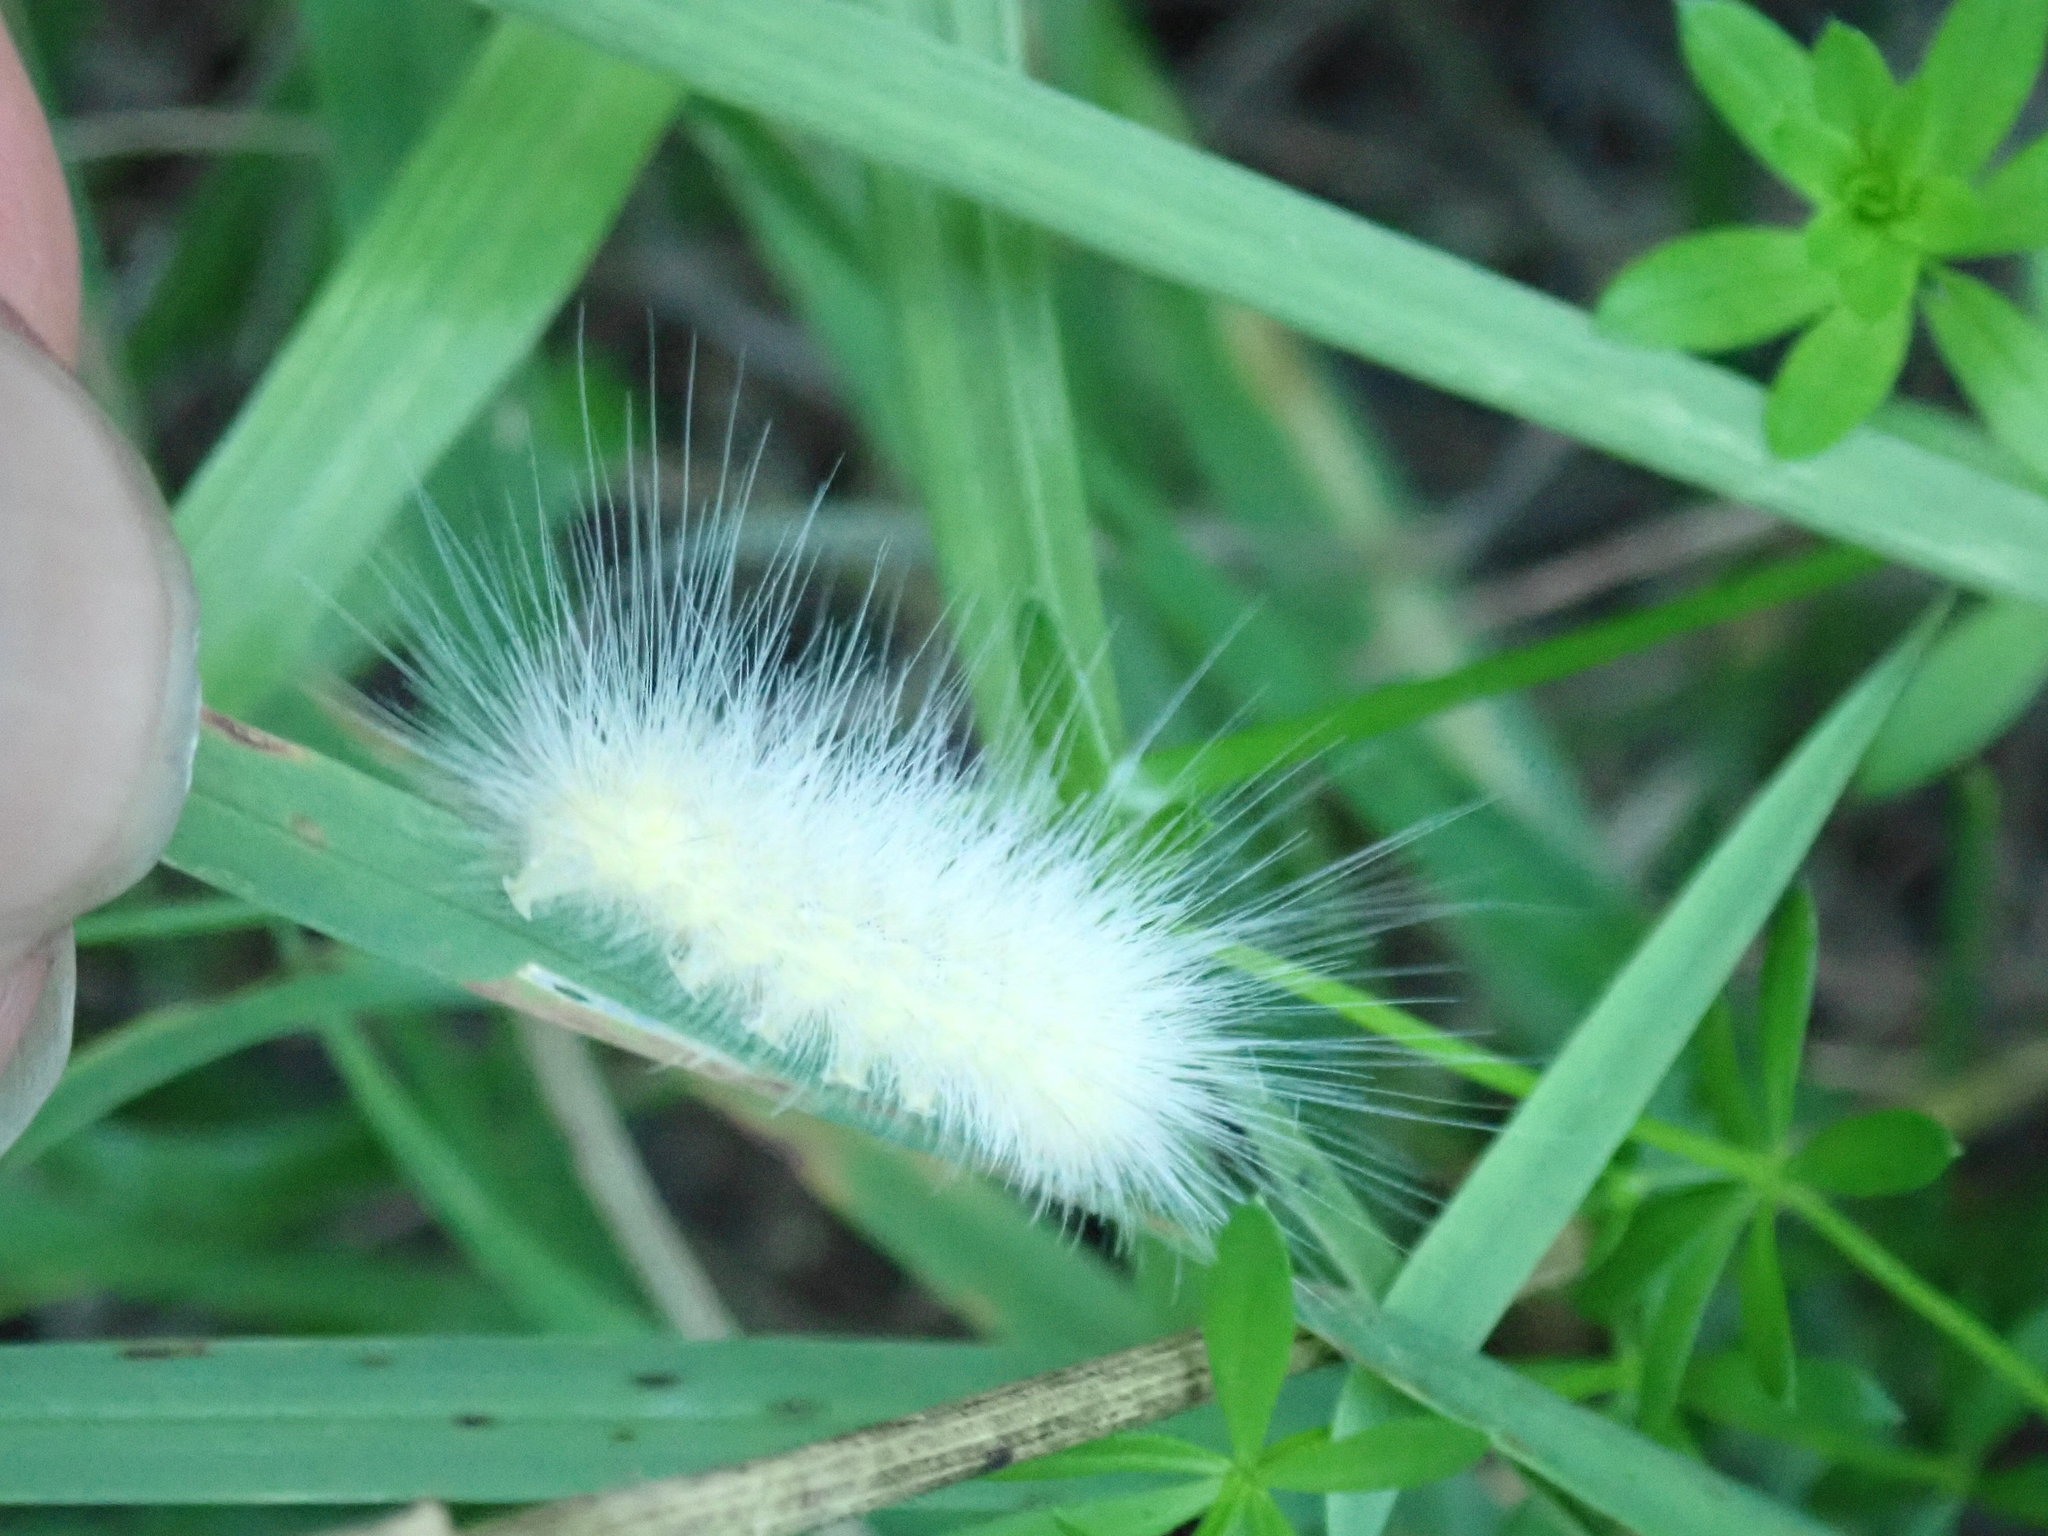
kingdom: Animalia
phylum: Arthropoda
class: Insecta
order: Lepidoptera
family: Erebidae
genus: Spilosoma
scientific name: Spilosoma virginica
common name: Virginia tiger moth
